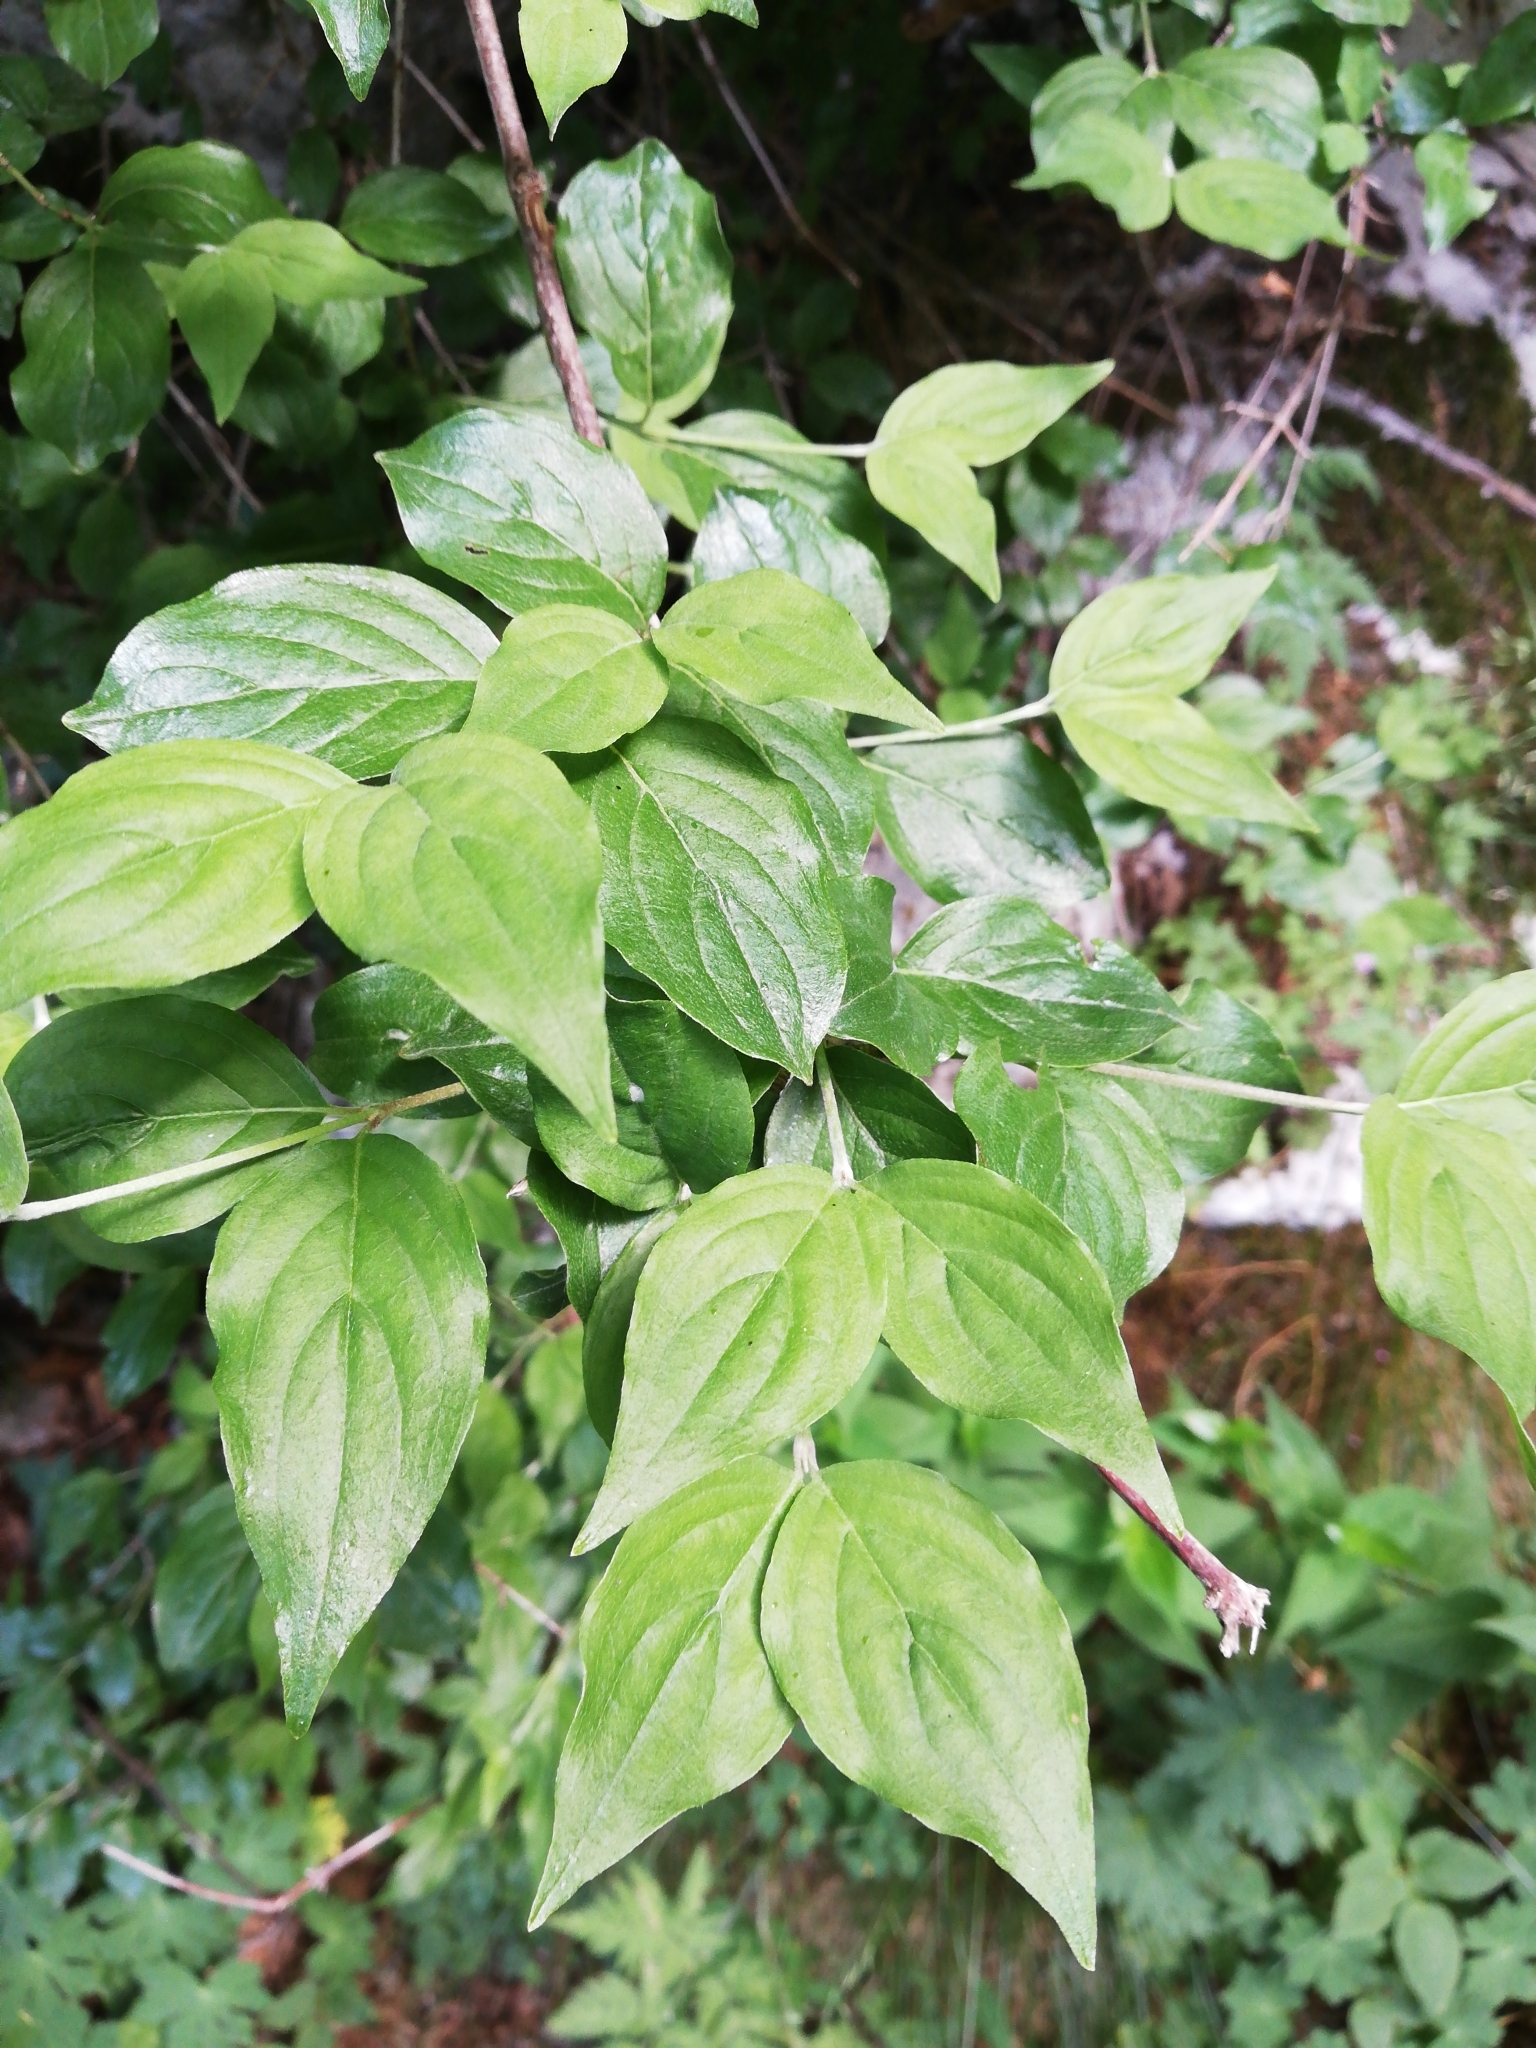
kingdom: Plantae
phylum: Tracheophyta
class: Magnoliopsida
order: Cornales
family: Cornaceae
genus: Cornus
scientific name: Cornus mas
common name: Cornelian-cherry
